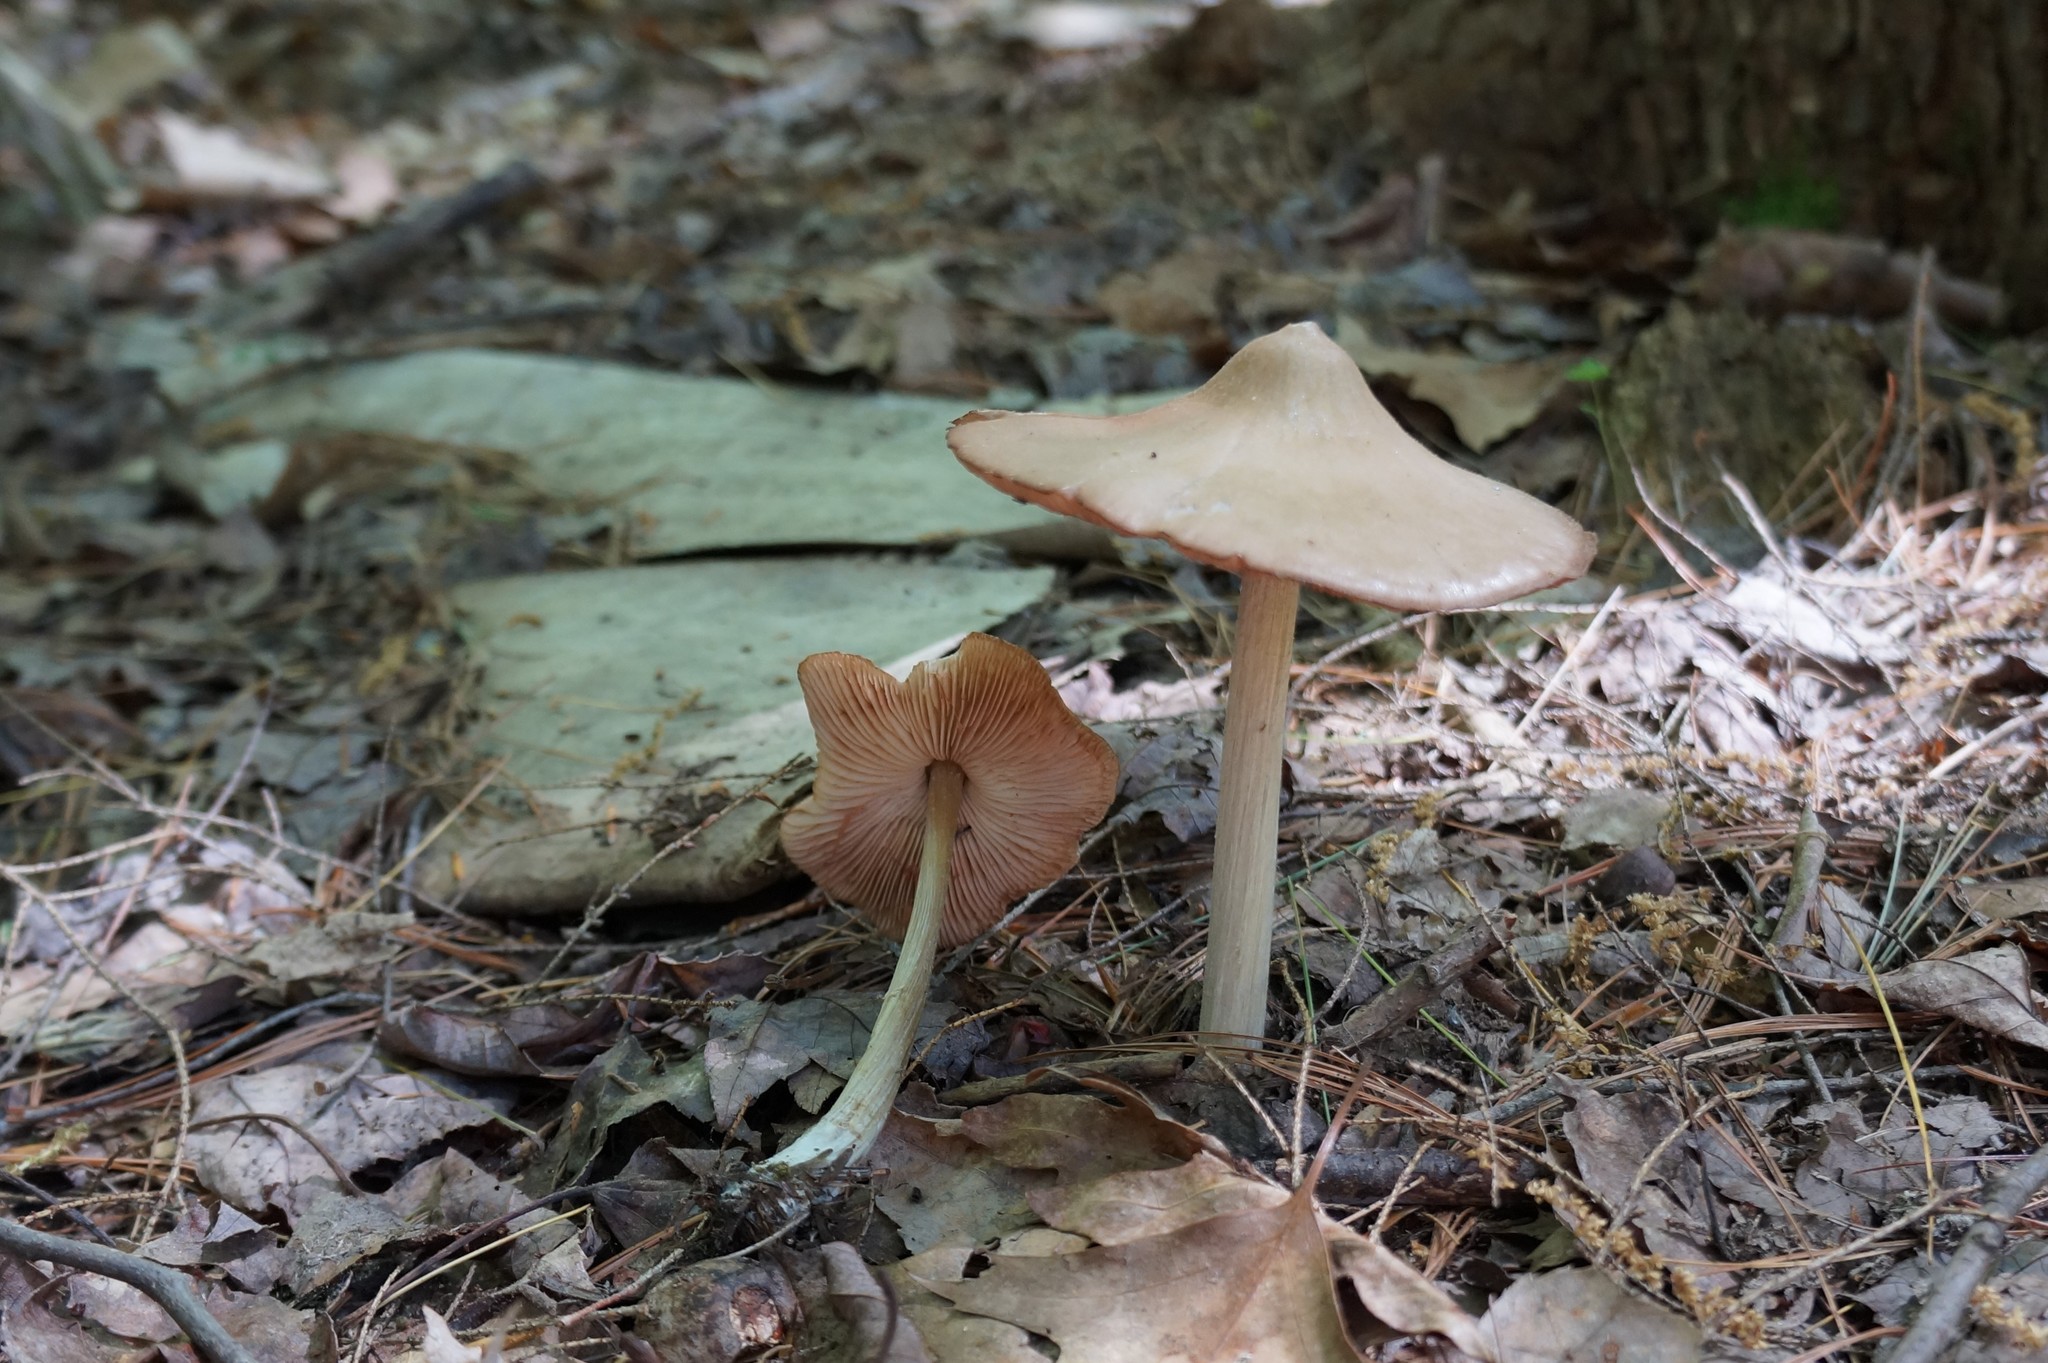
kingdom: Fungi
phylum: Basidiomycota
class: Agaricomycetes
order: Agaricales
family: Entolomataceae
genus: Entoloma
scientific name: Entoloma vernum
